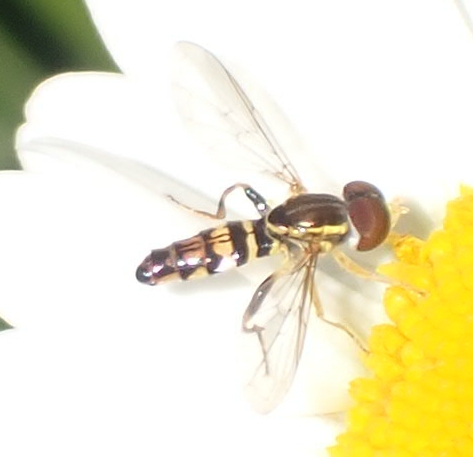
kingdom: Animalia
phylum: Arthropoda
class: Insecta
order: Diptera
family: Syrphidae
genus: Toxomerus
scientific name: Toxomerus geminatus
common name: Eastern calligrapher
